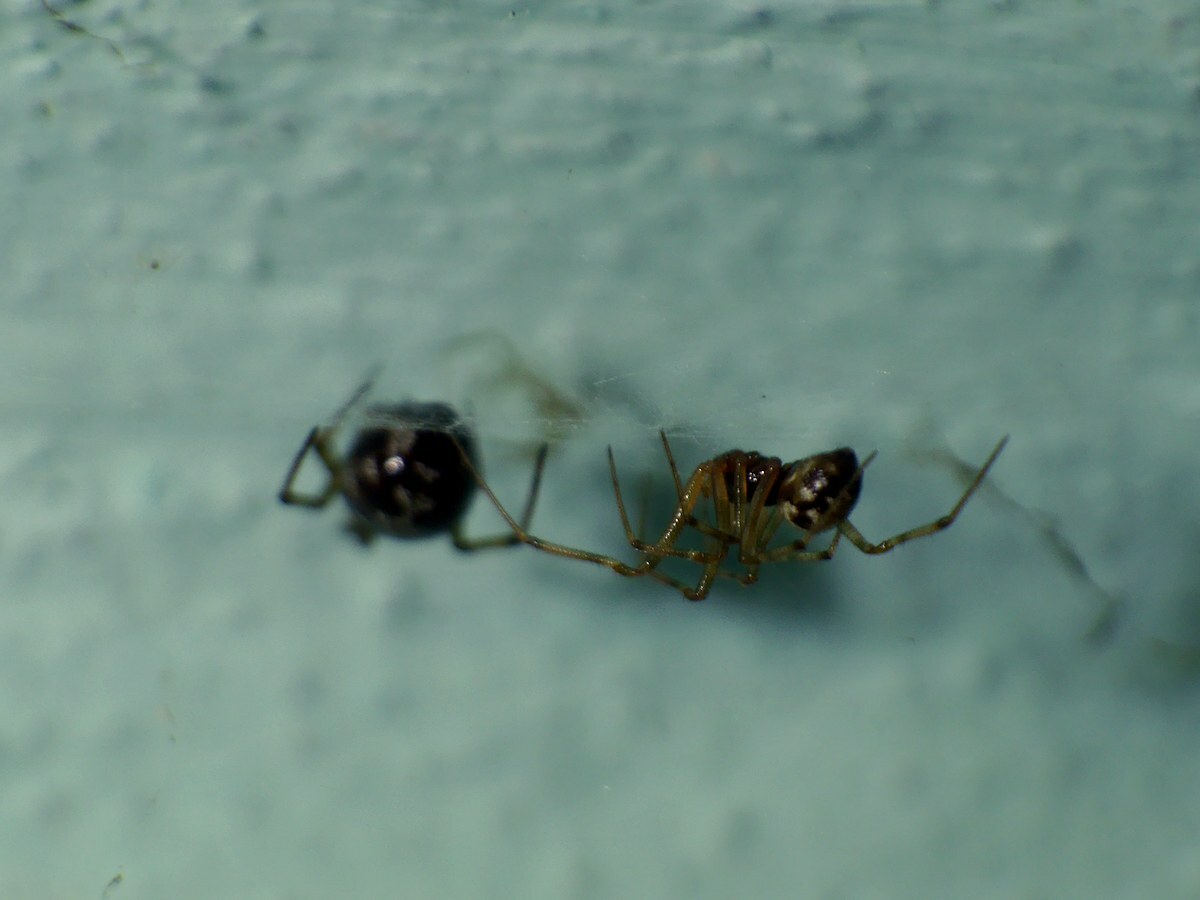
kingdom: Animalia
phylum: Arthropoda
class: Arachnida
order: Araneae
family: Theridiidae
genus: Steatoda
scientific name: Steatoda triangulosa
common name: Triangulate bud spider
